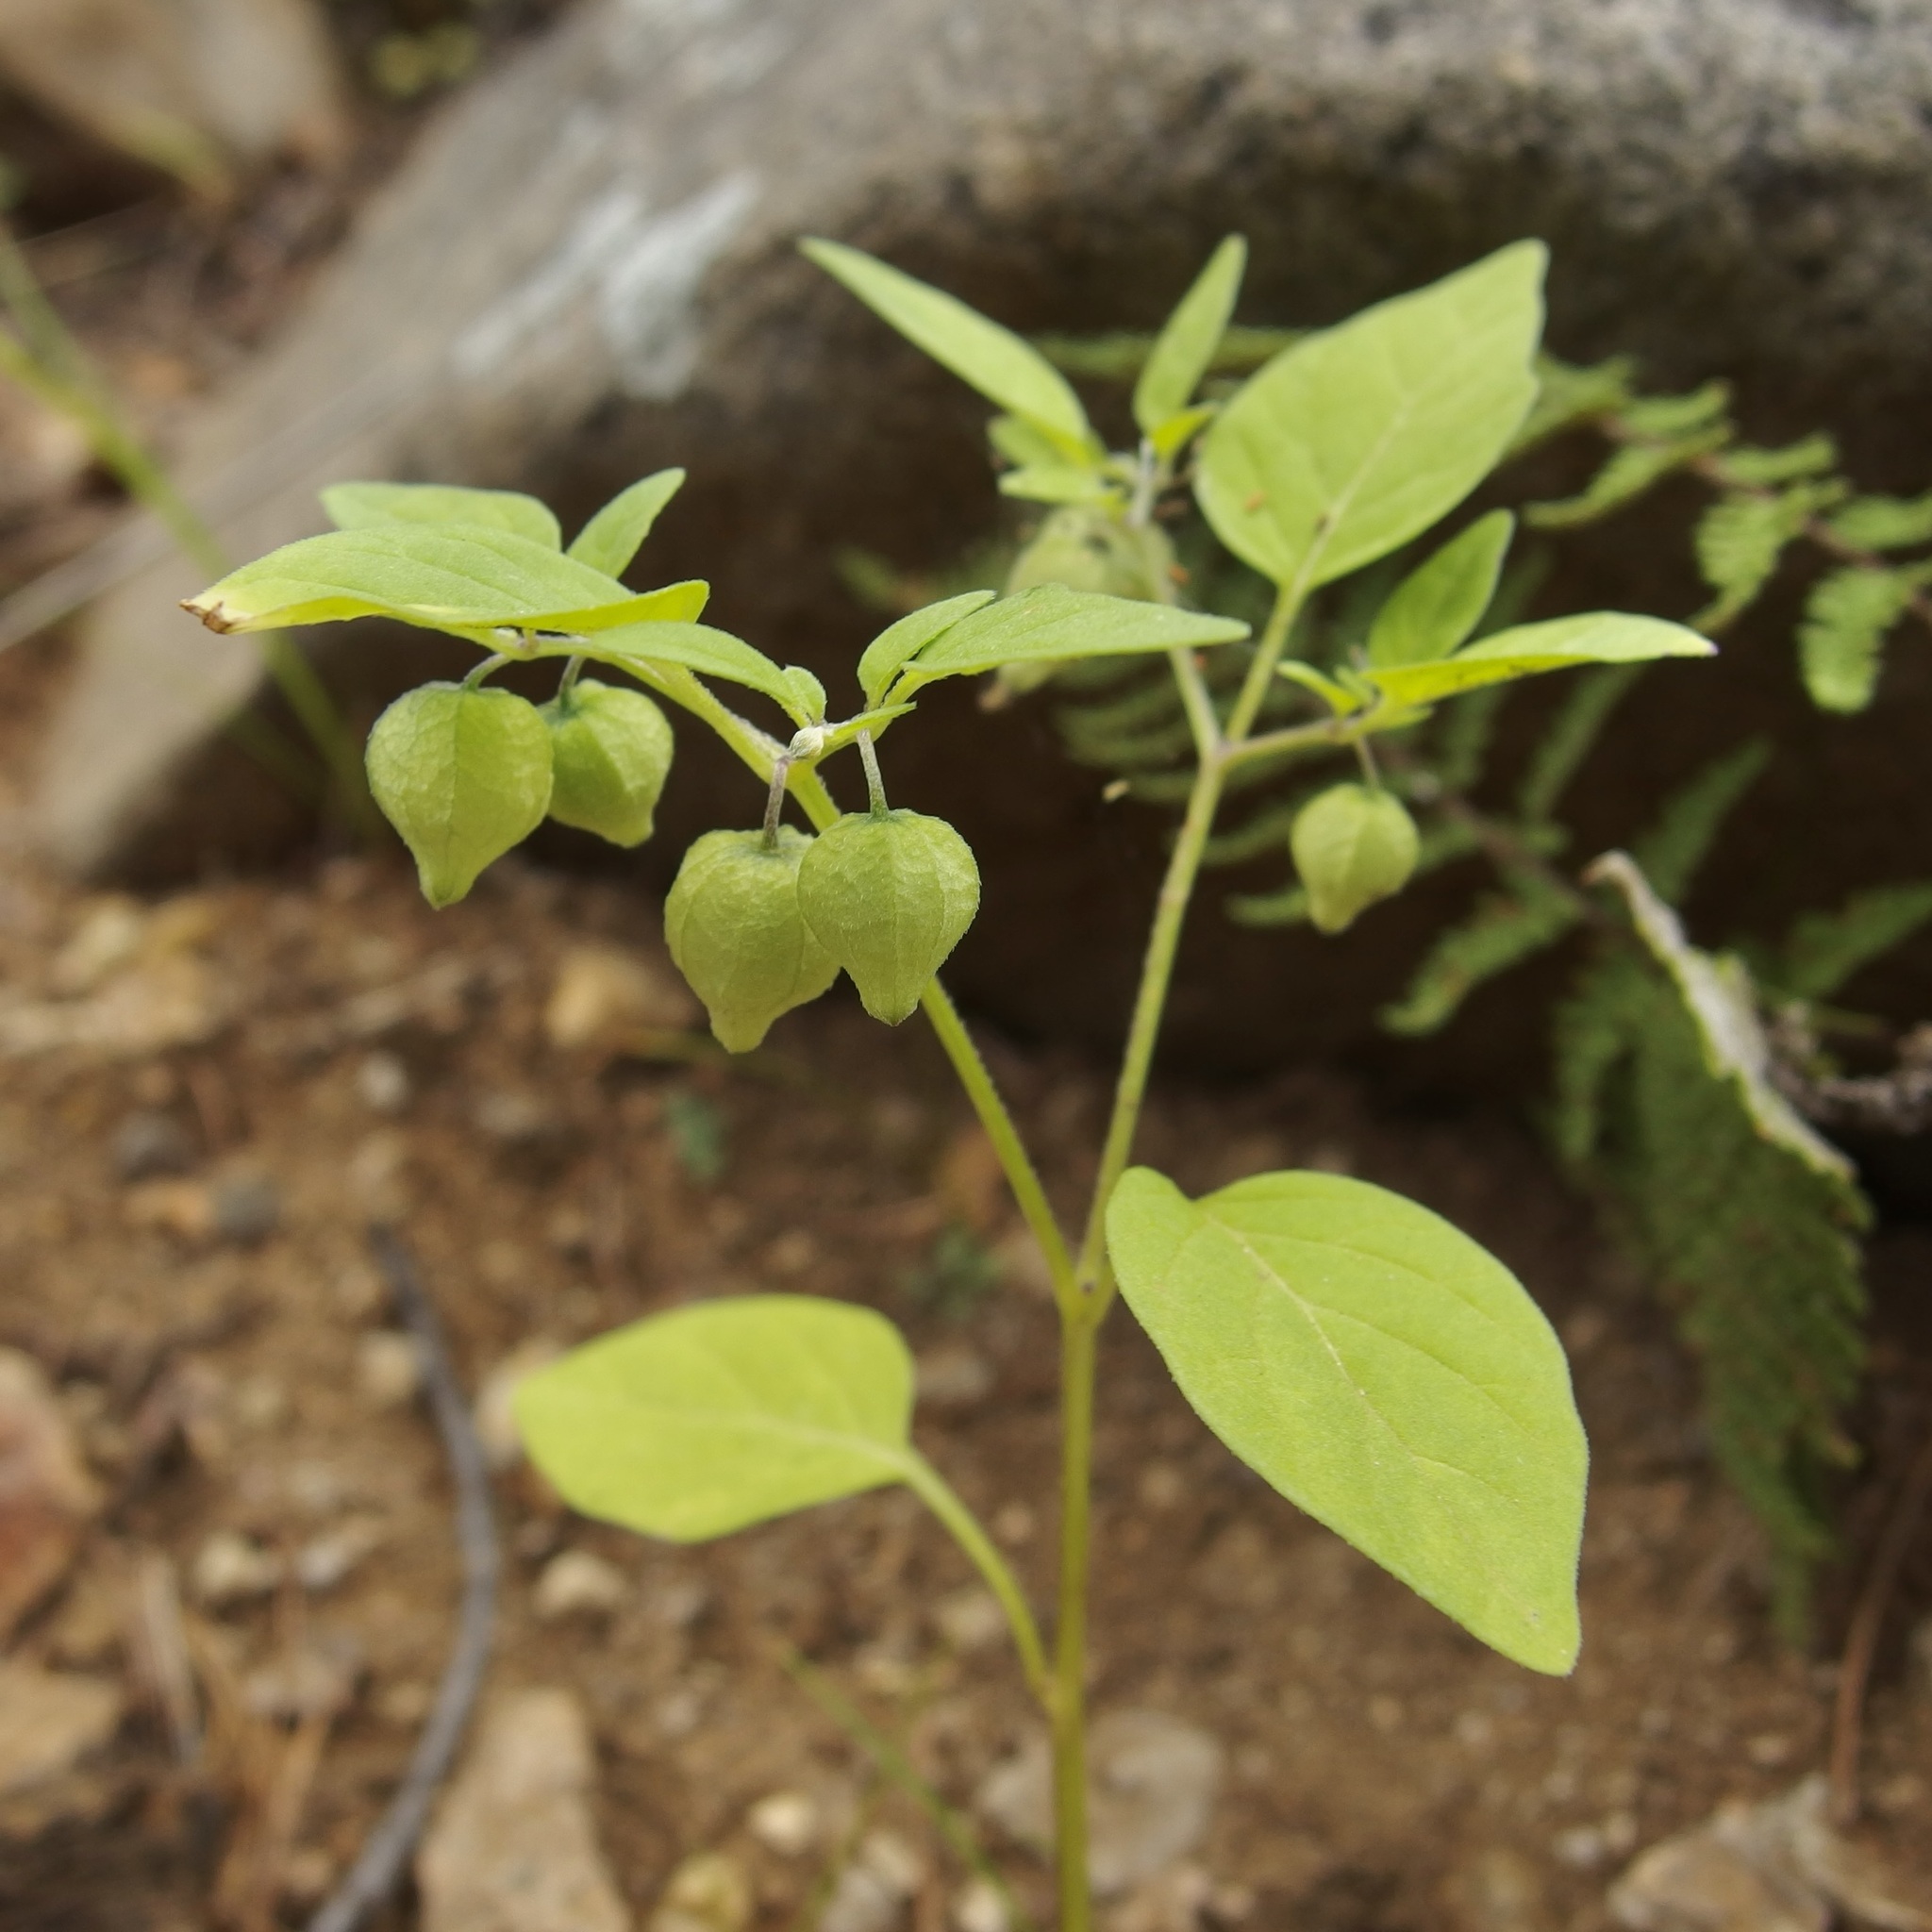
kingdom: Plantae
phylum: Tracheophyta
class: Magnoliopsida
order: Solanales
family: Solanaceae
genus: Physalis
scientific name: Physalis solanacea
